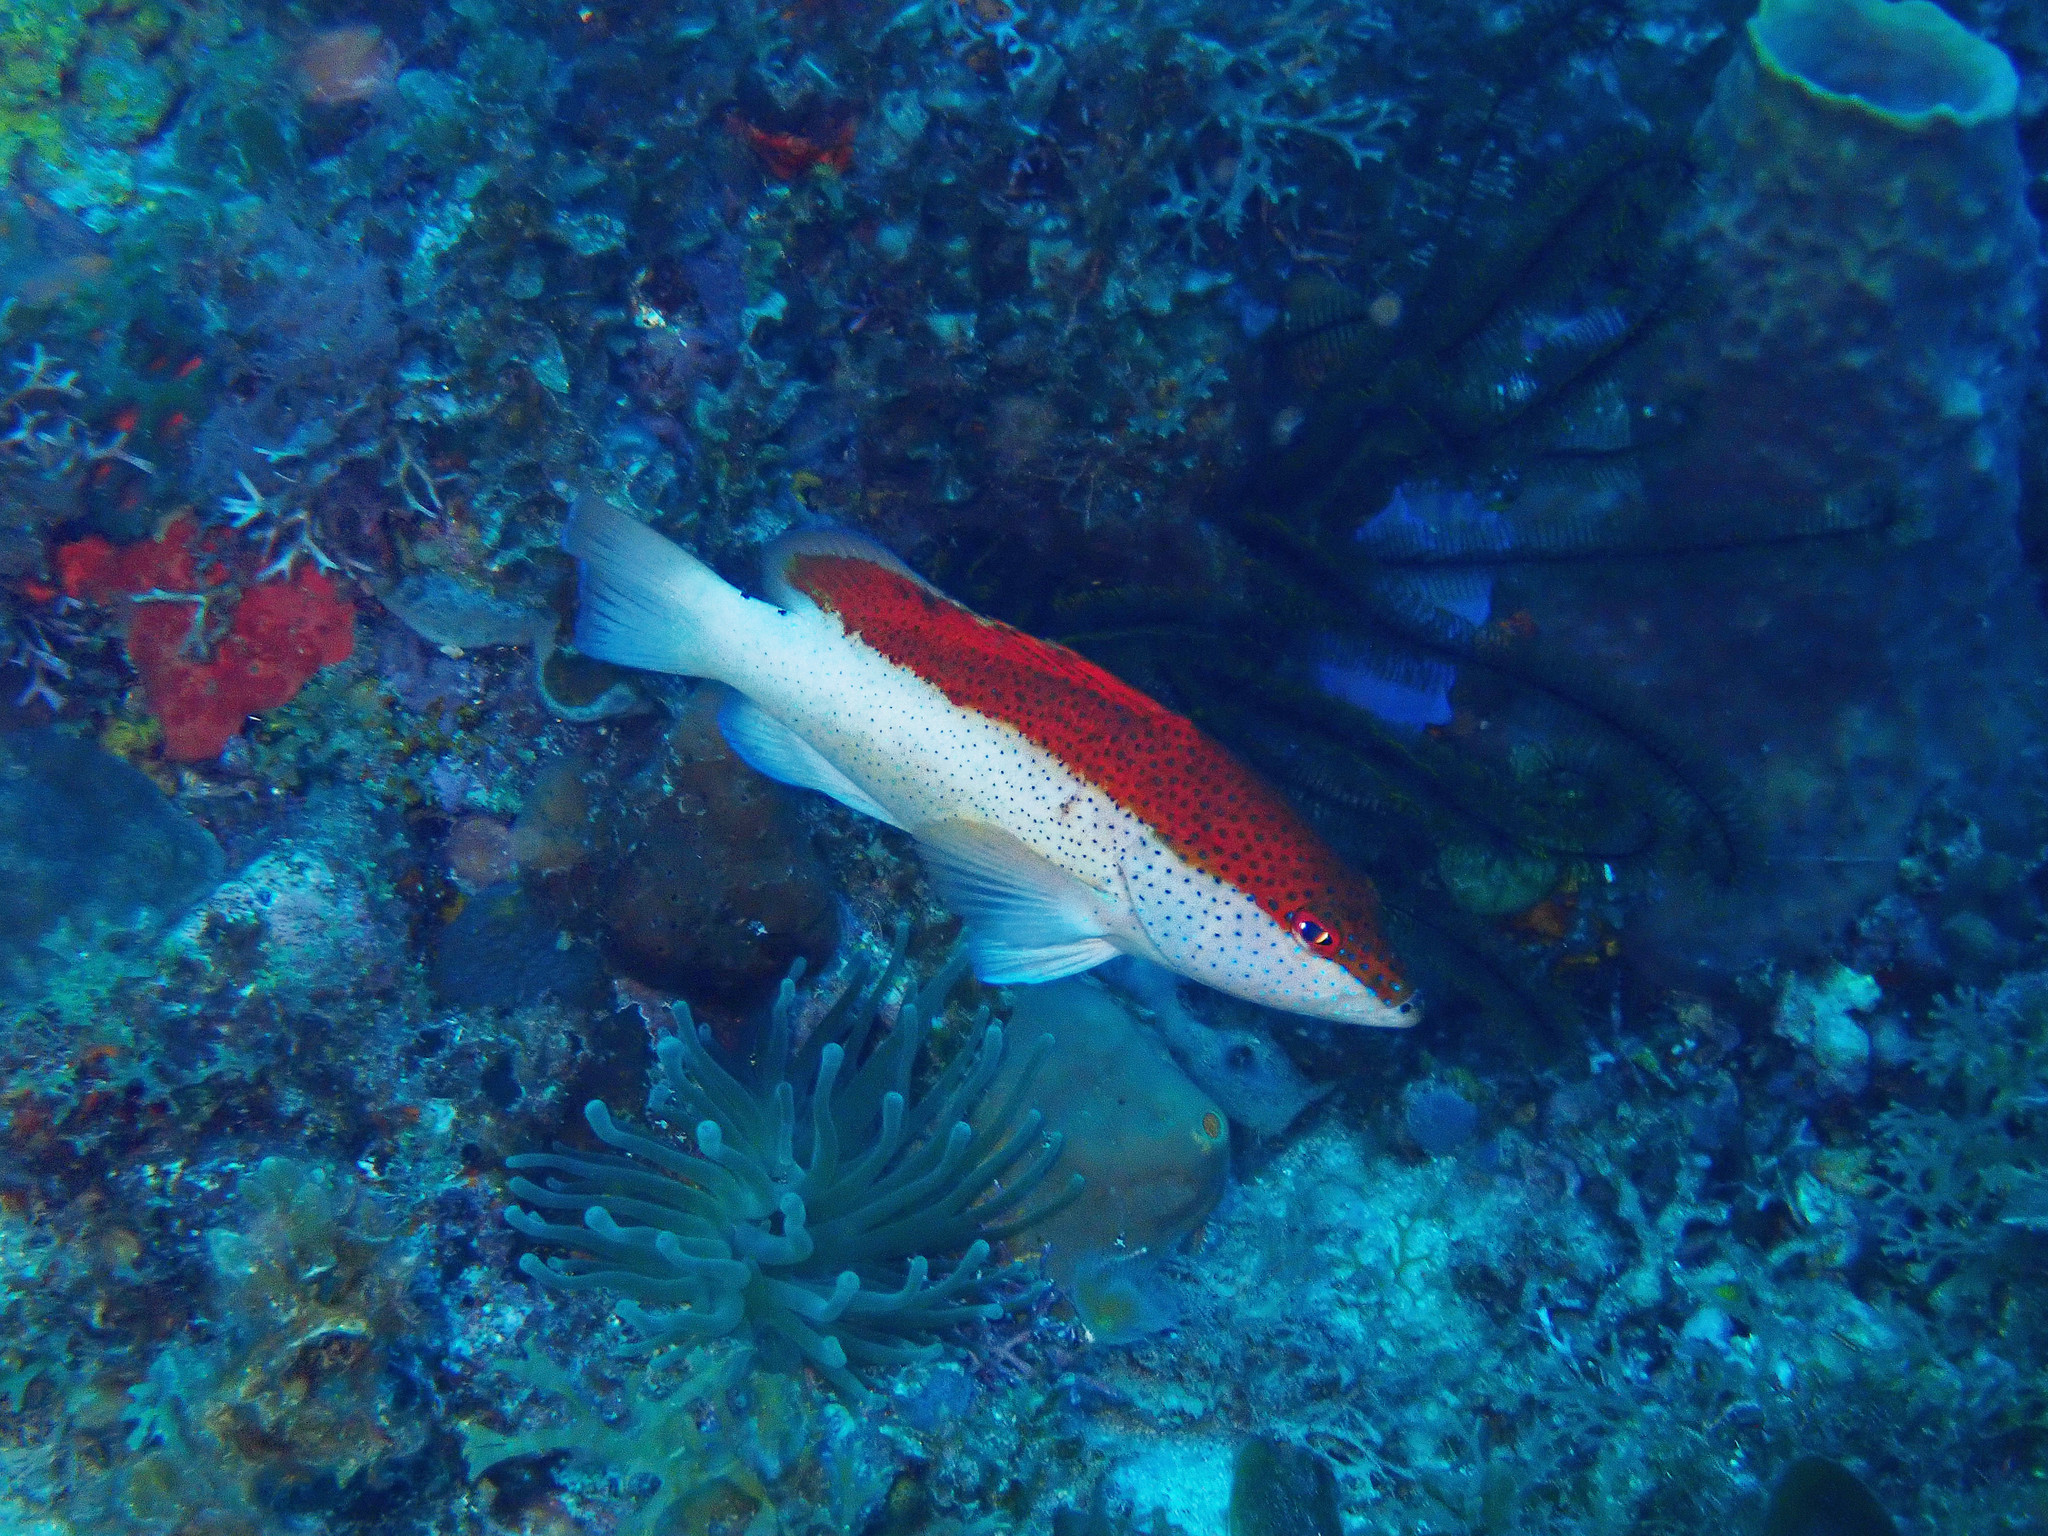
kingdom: Animalia
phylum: Chordata
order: Perciformes
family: Serranidae
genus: Cephalopholis
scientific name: Cephalopholis fulva
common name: Butterfish
